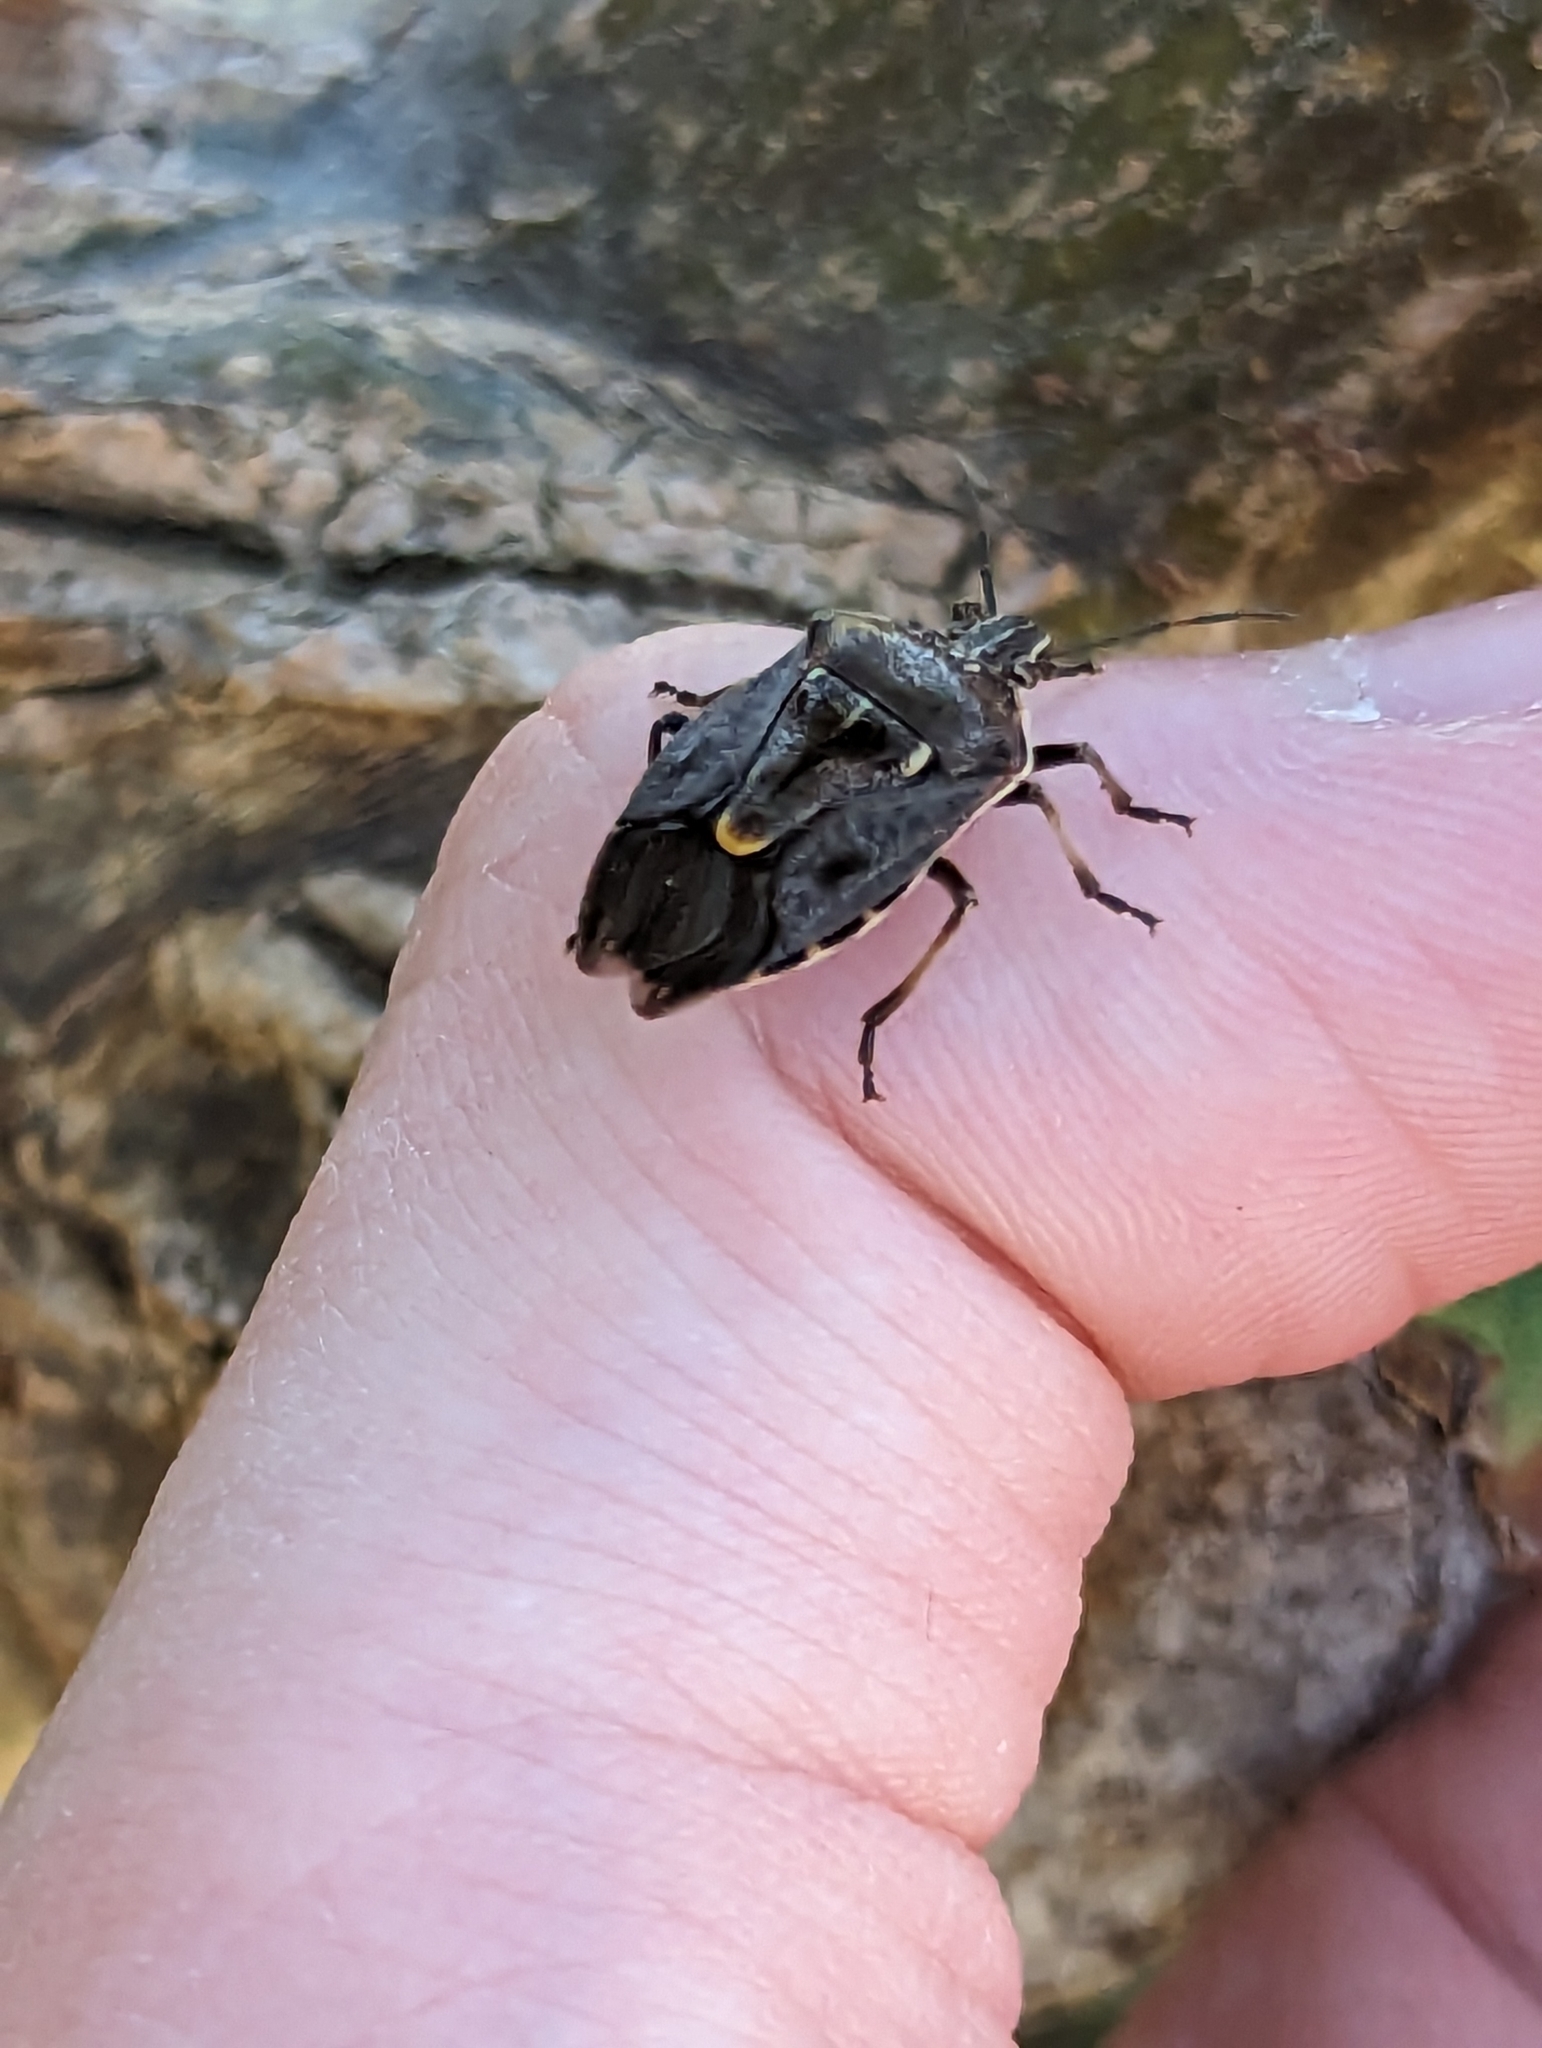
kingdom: Animalia
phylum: Arthropoda
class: Insecta
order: Hemiptera
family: Pentatomidae
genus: Cermatulus
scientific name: Cermatulus nasalis
